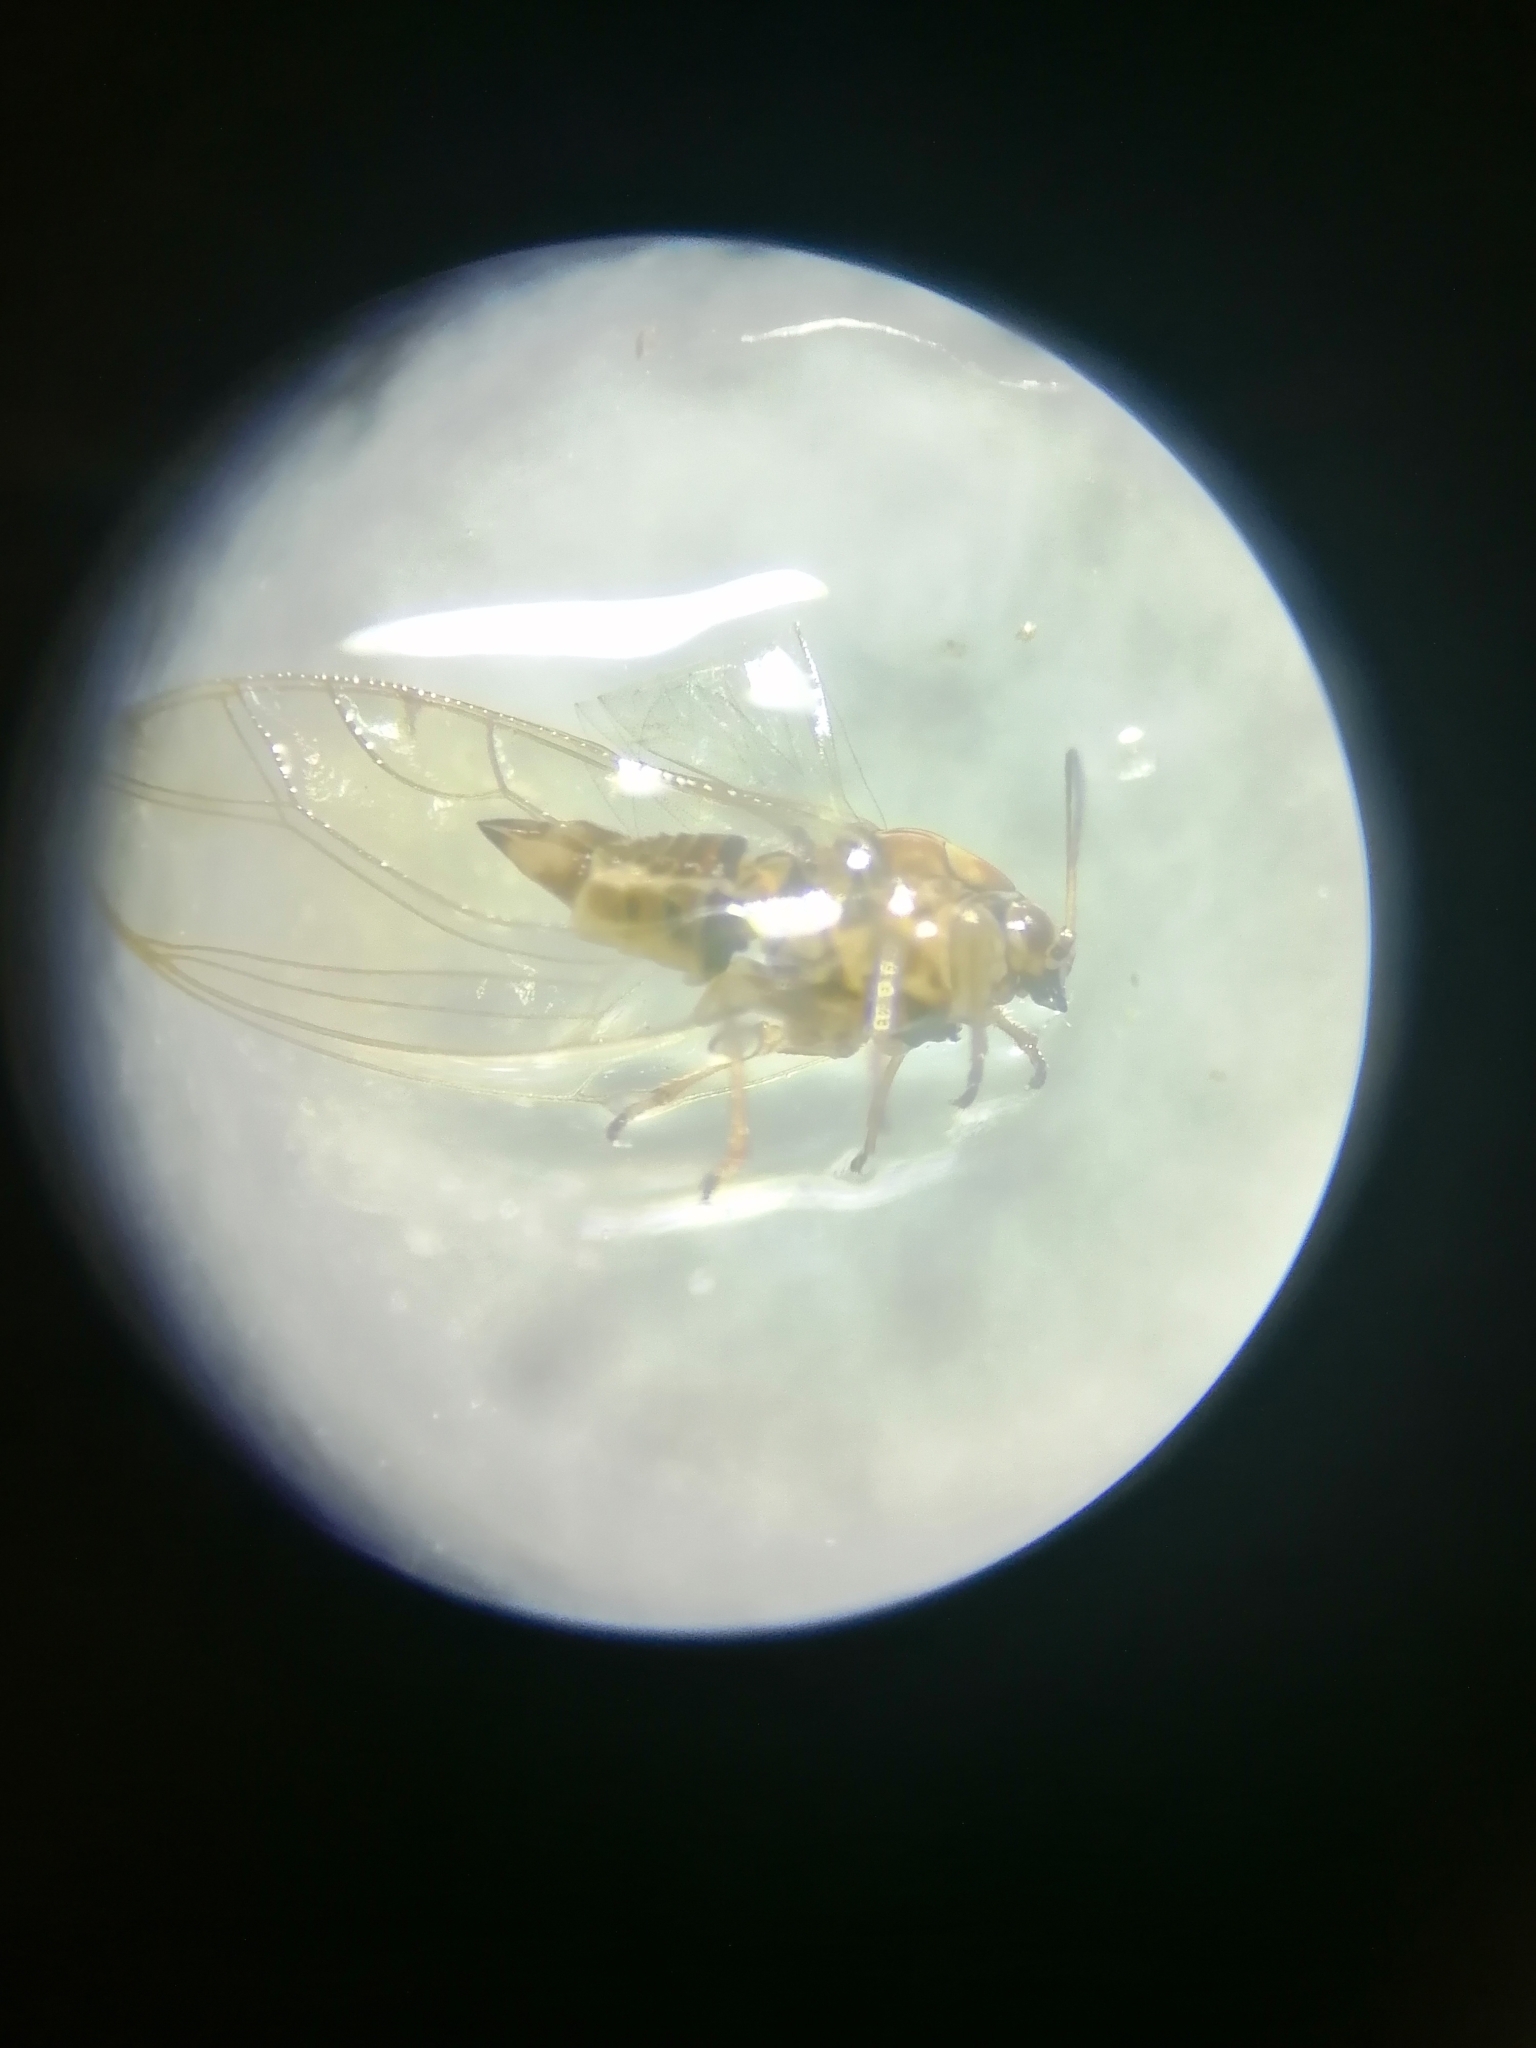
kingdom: Animalia
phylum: Arthropoda
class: Insecta
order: Hemiptera
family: Triozidae
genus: Trioza
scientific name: Trioza urticae
